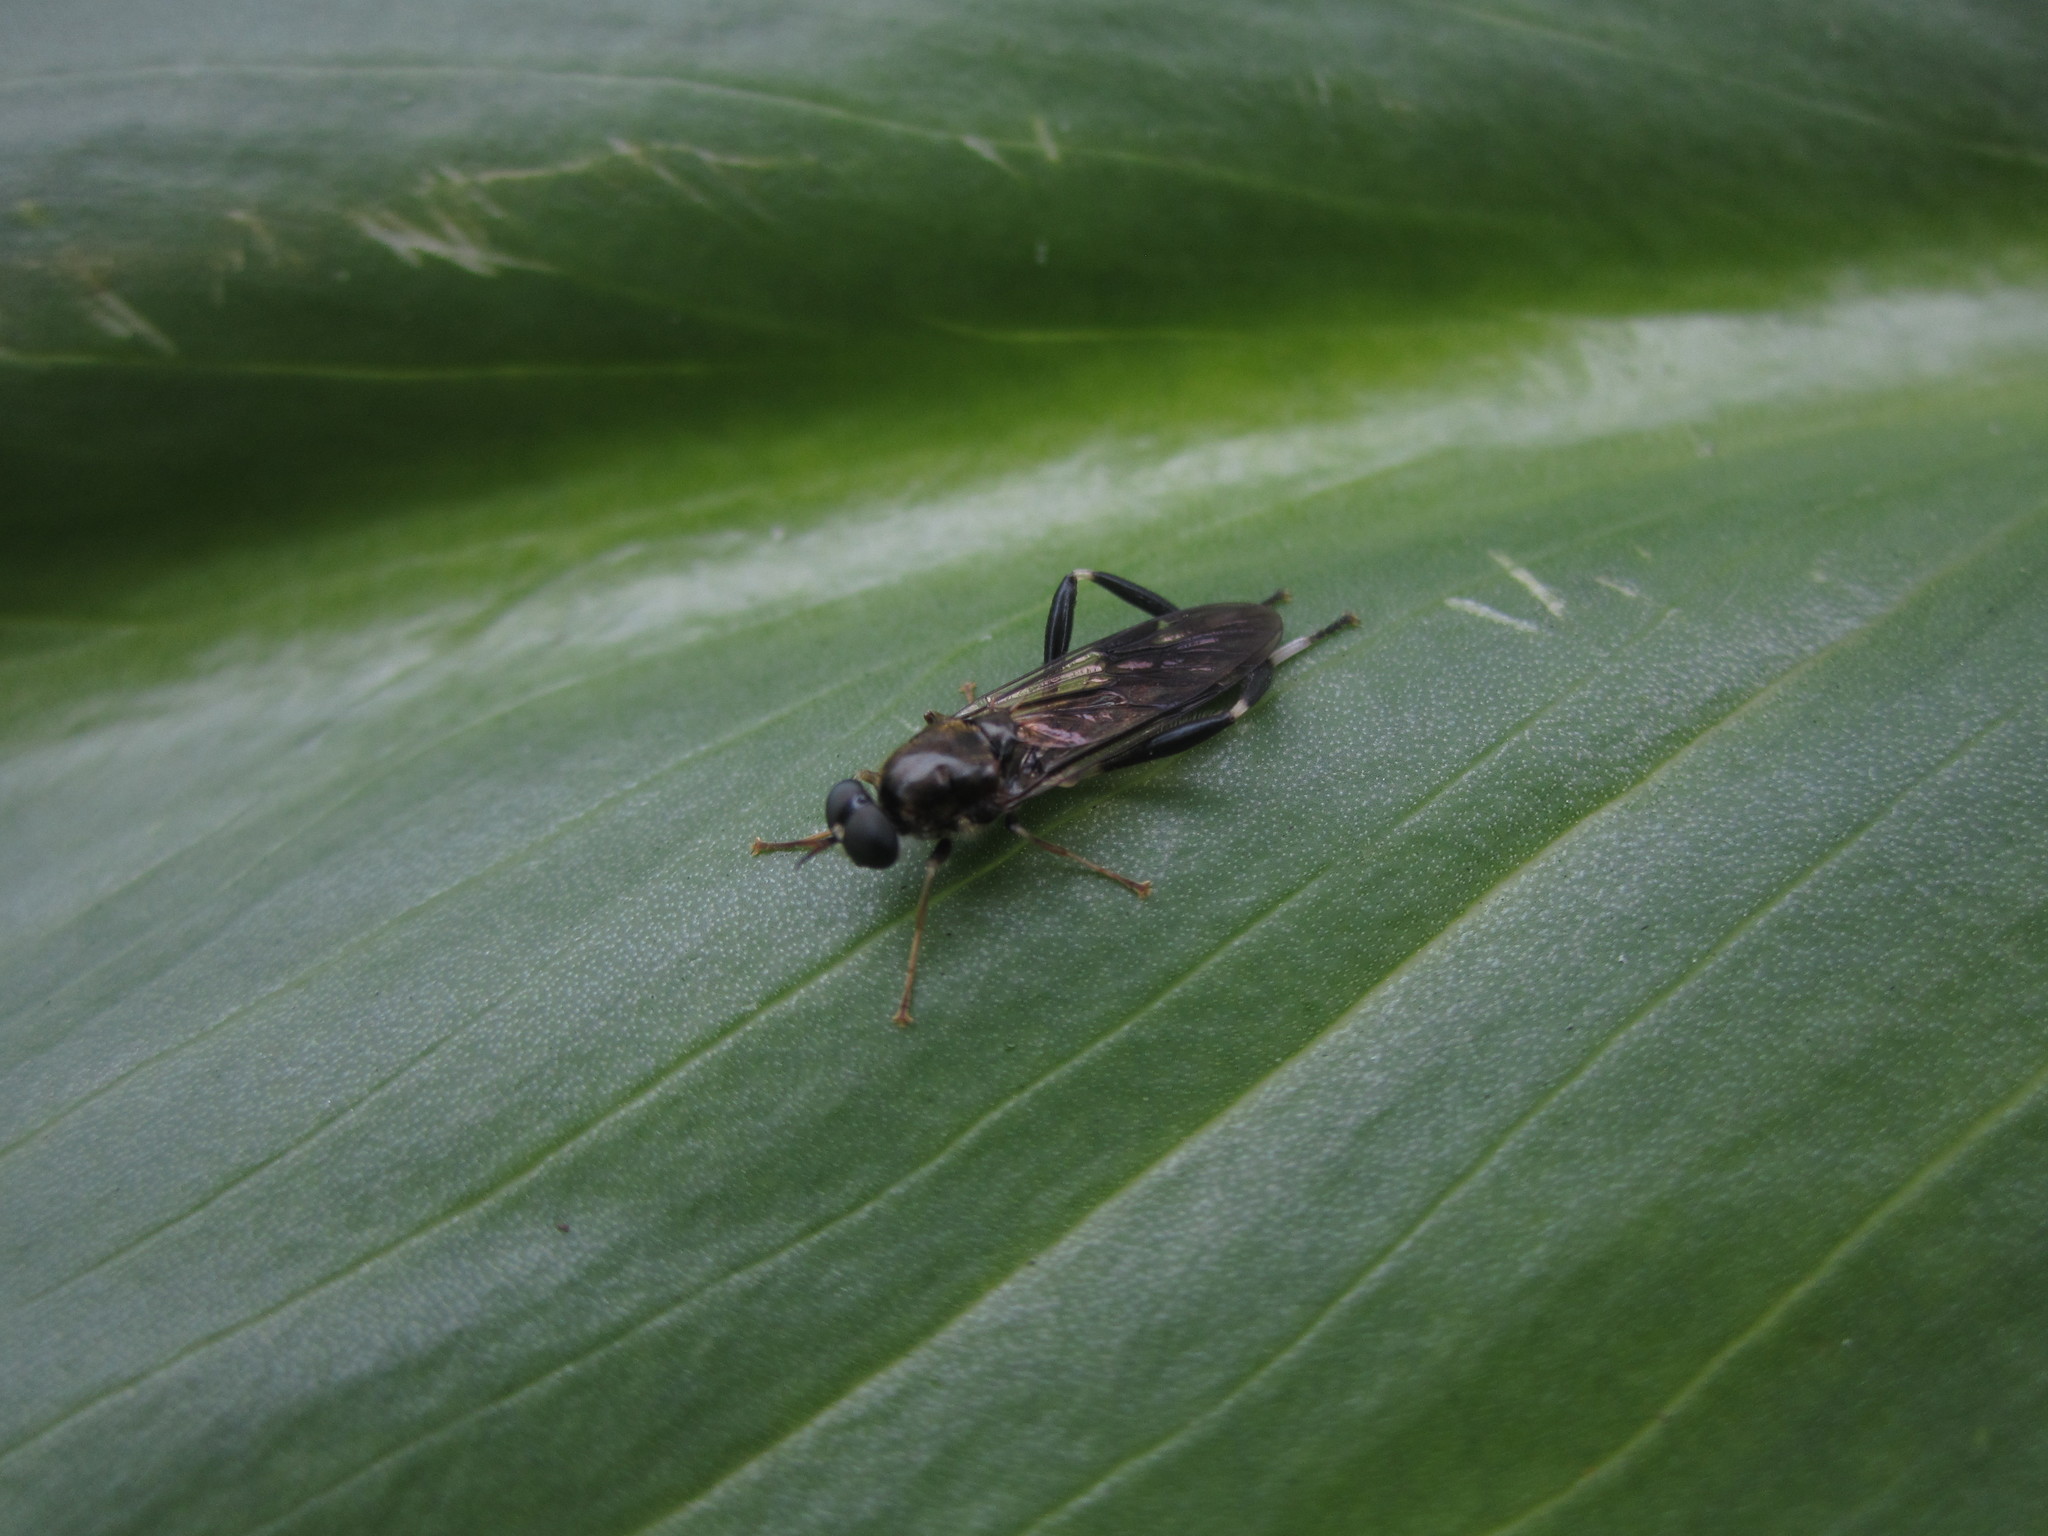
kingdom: Animalia
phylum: Arthropoda
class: Insecta
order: Diptera
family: Stratiomyidae
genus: Exaireta
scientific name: Exaireta spinigera
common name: Blue soldier fly
